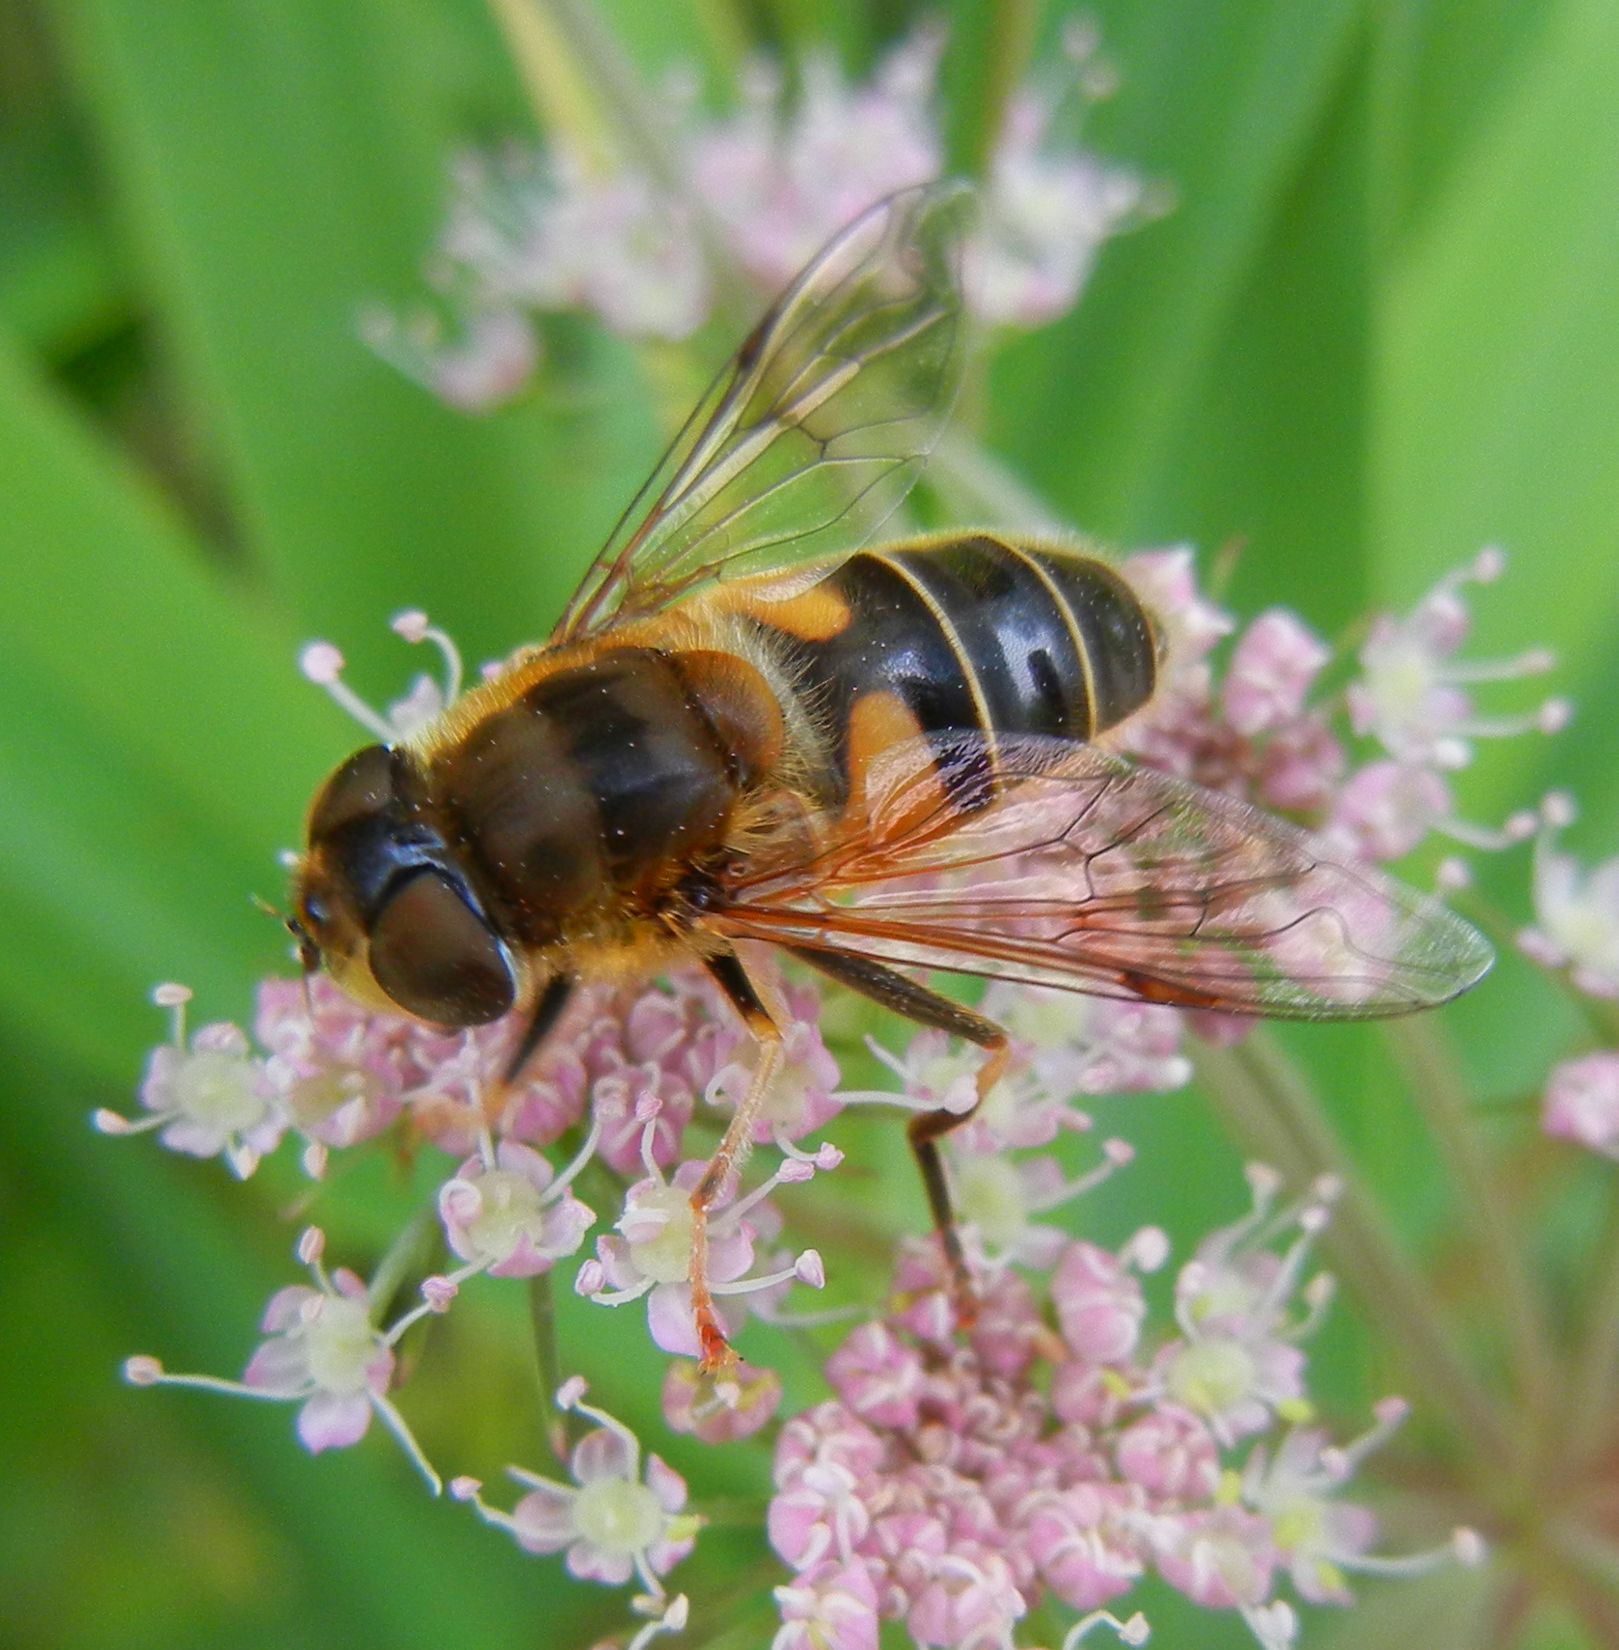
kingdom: Animalia
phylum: Arthropoda
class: Insecta
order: Diptera
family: Syrphidae
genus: Eristalis
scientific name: Eristalis pertinax
